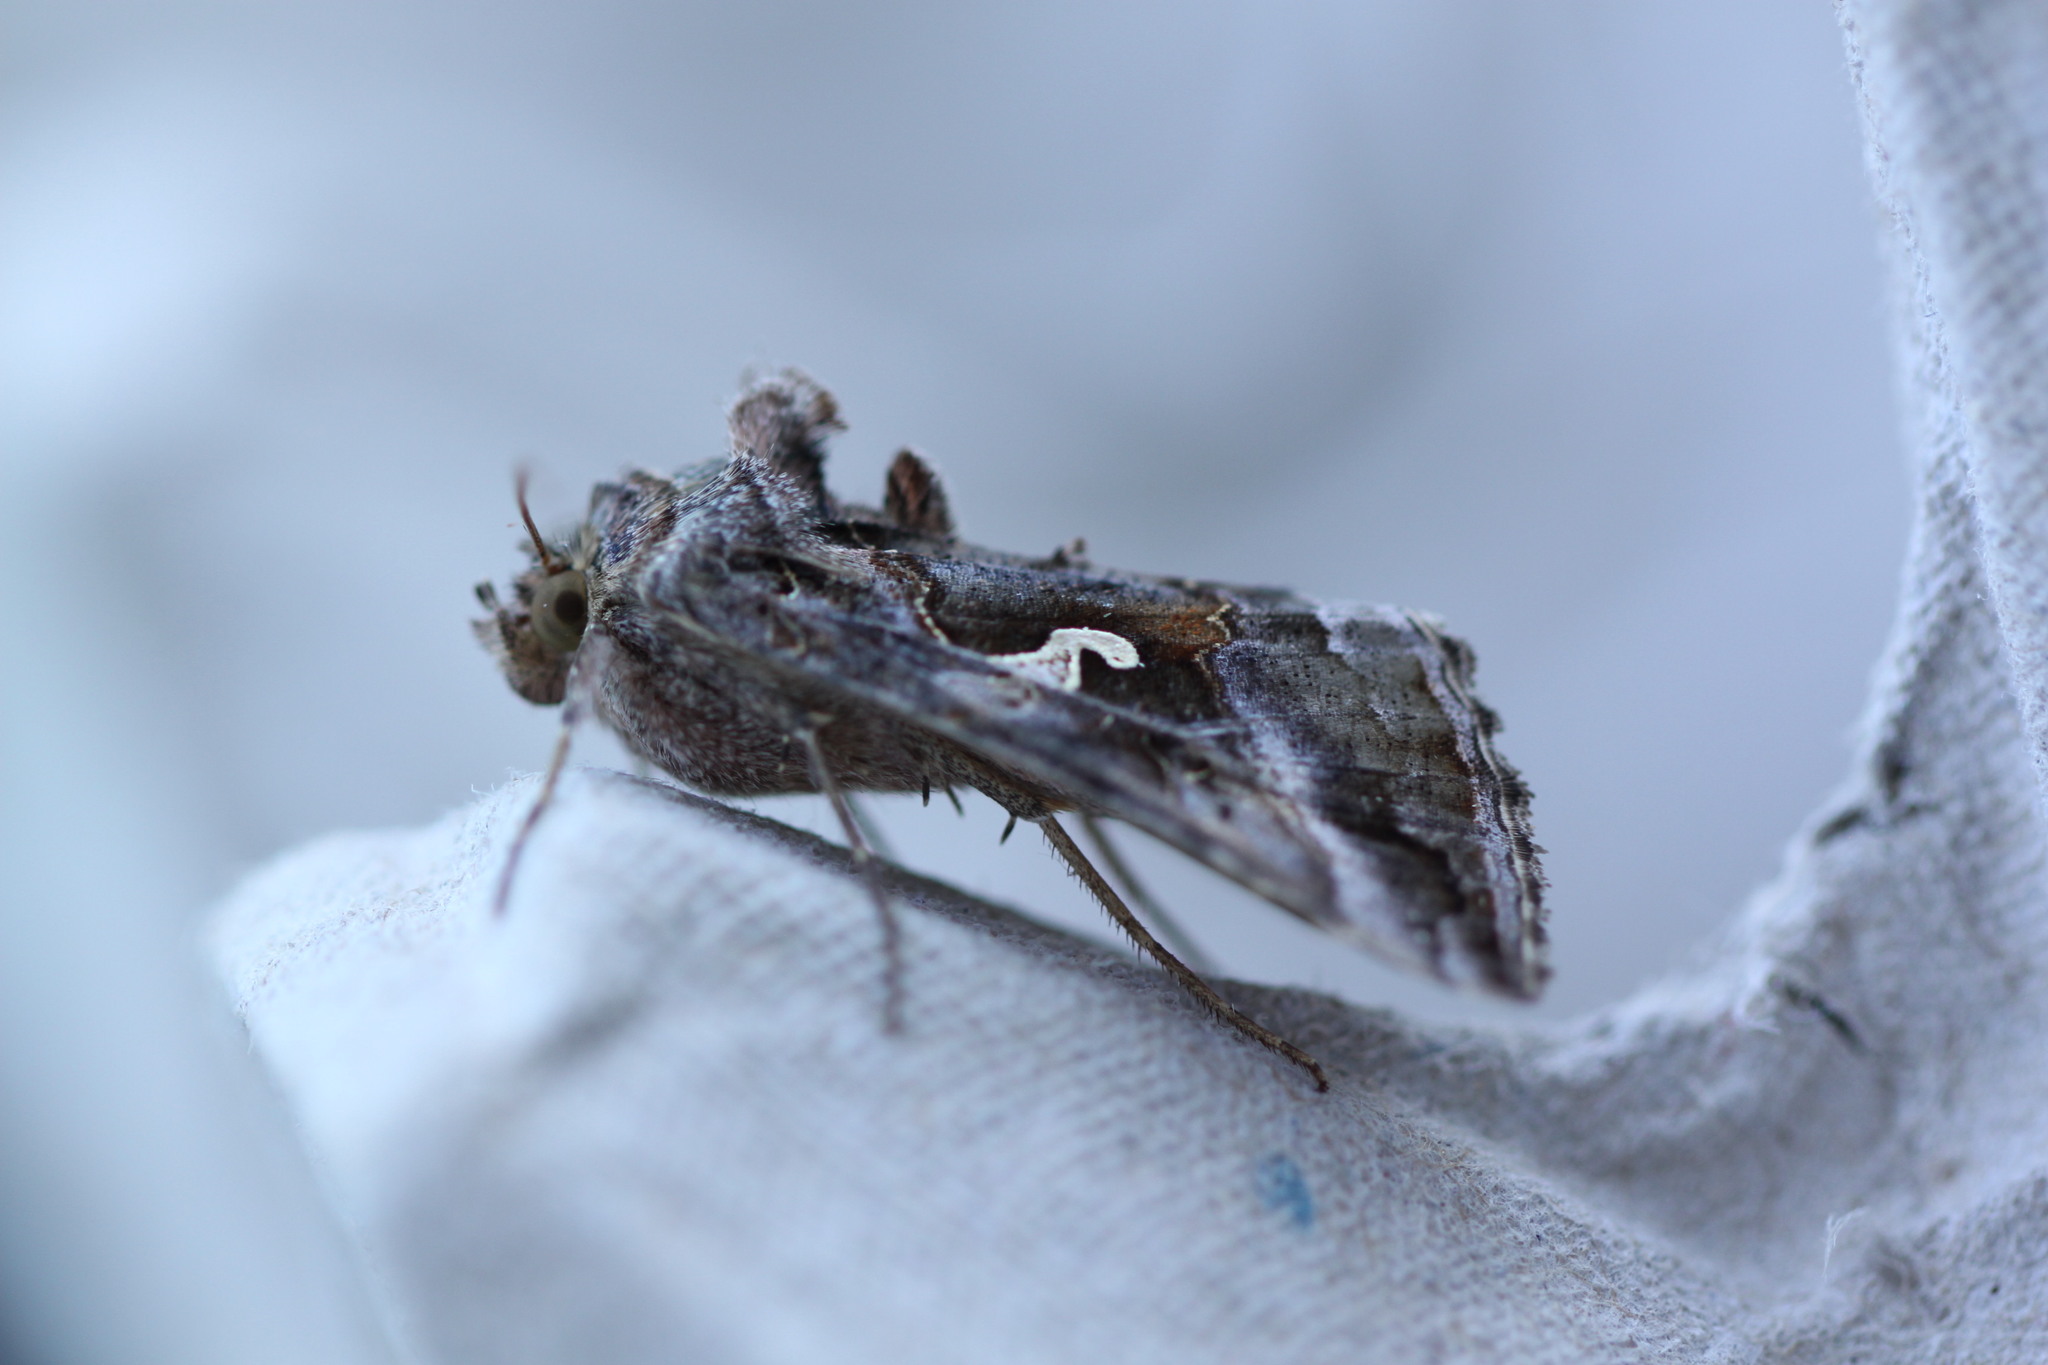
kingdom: Animalia
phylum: Arthropoda
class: Insecta
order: Lepidoptera
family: Noctuidae
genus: Autographa
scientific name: Autographa gamma
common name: Silver y
